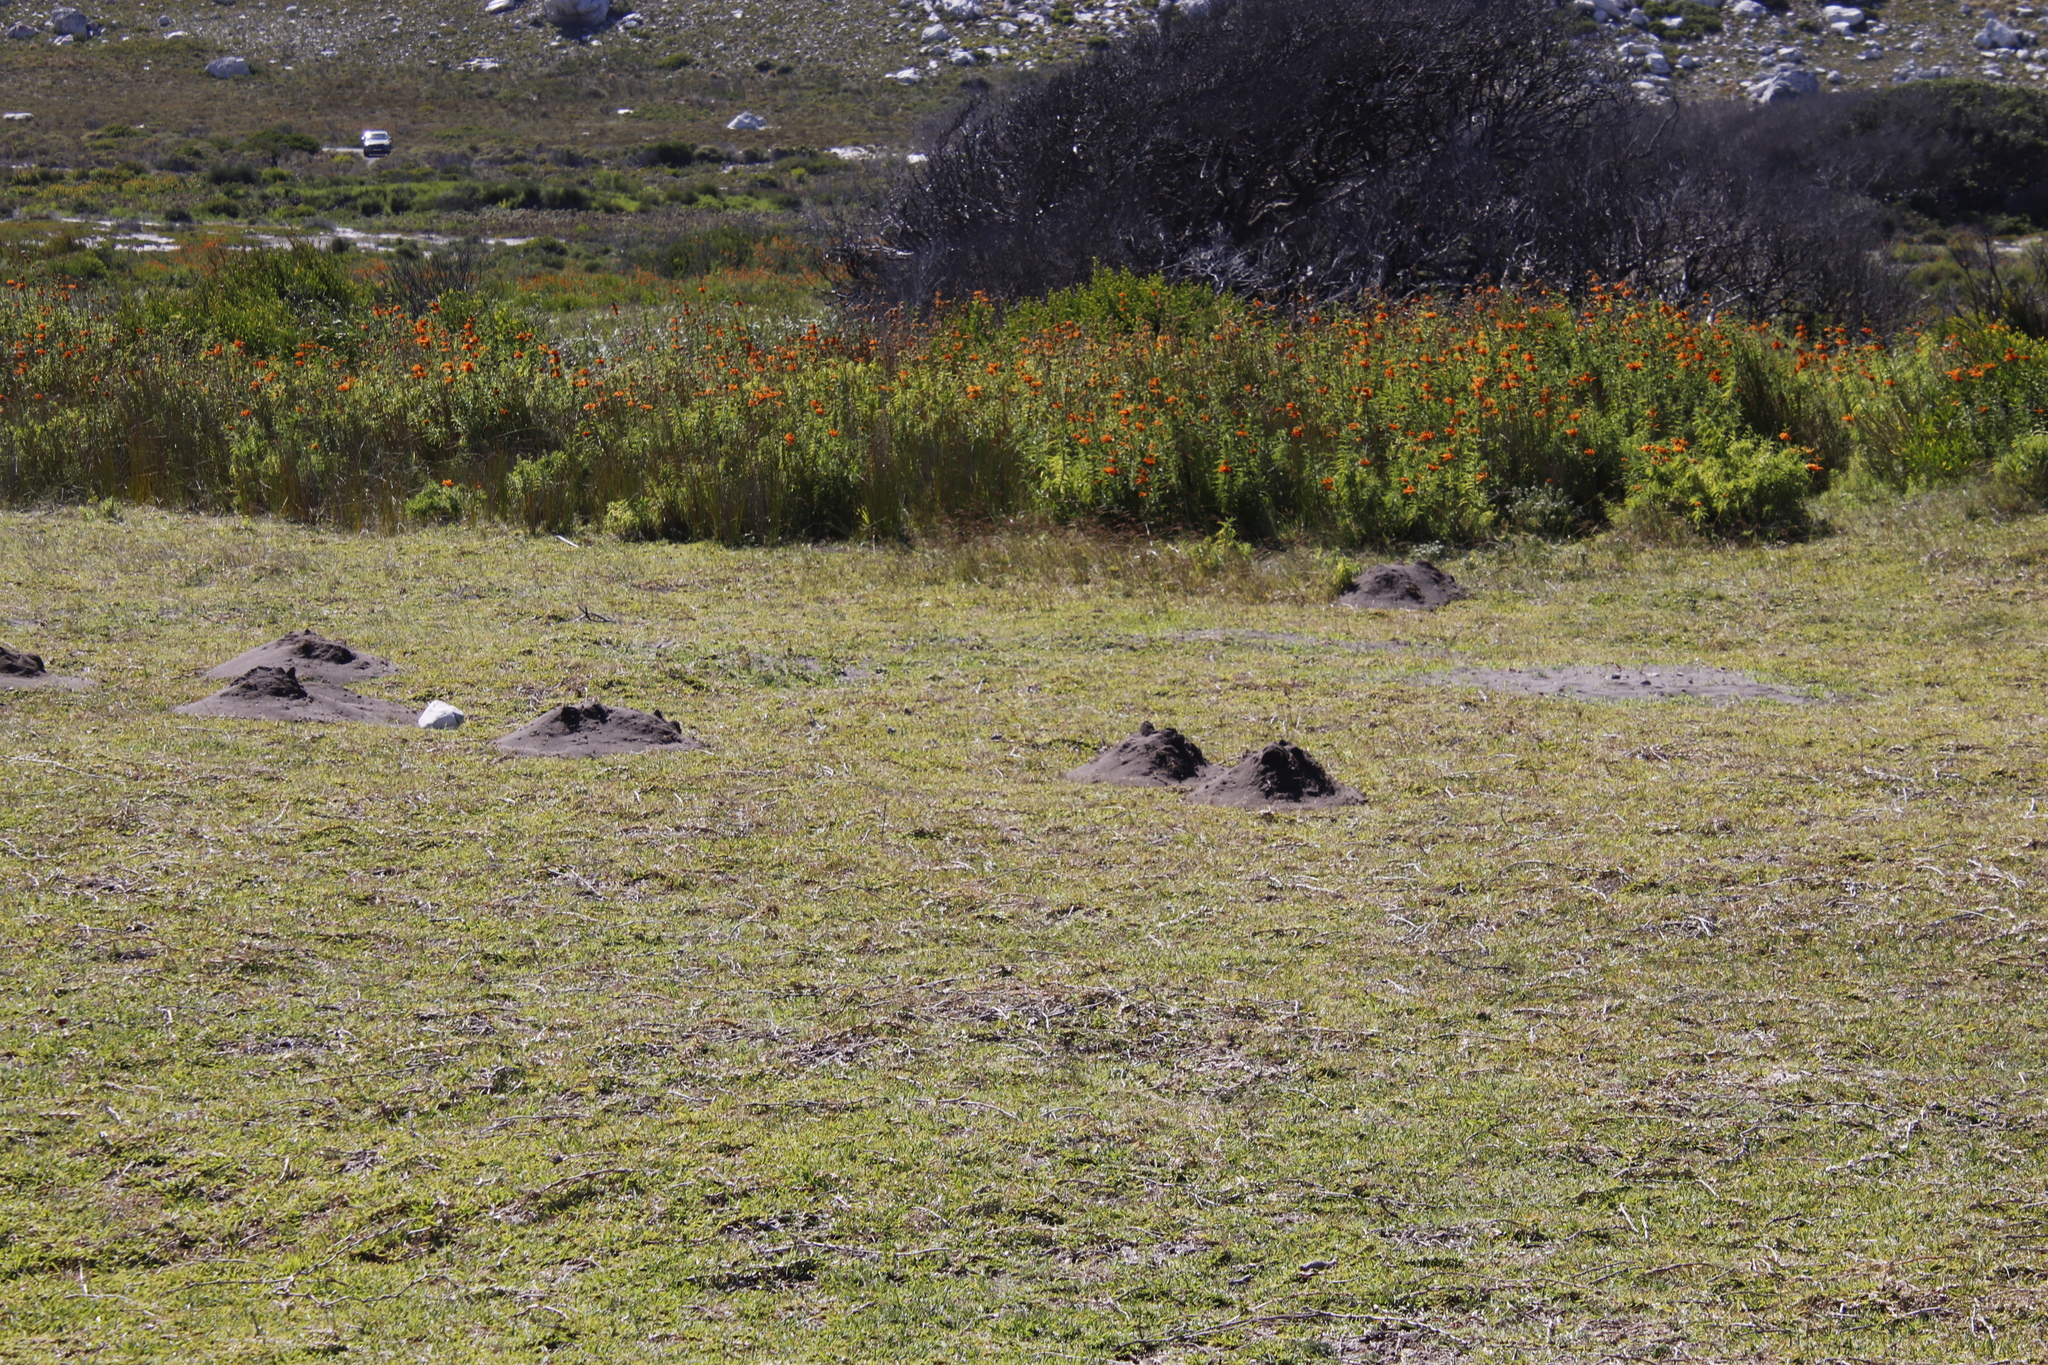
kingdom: Animalia
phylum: Chordata
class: Mammalia
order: Rodentia
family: Bathyergidae
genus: Bathyergus
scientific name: Bathyergus suillus
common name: Cape dune mole rat
